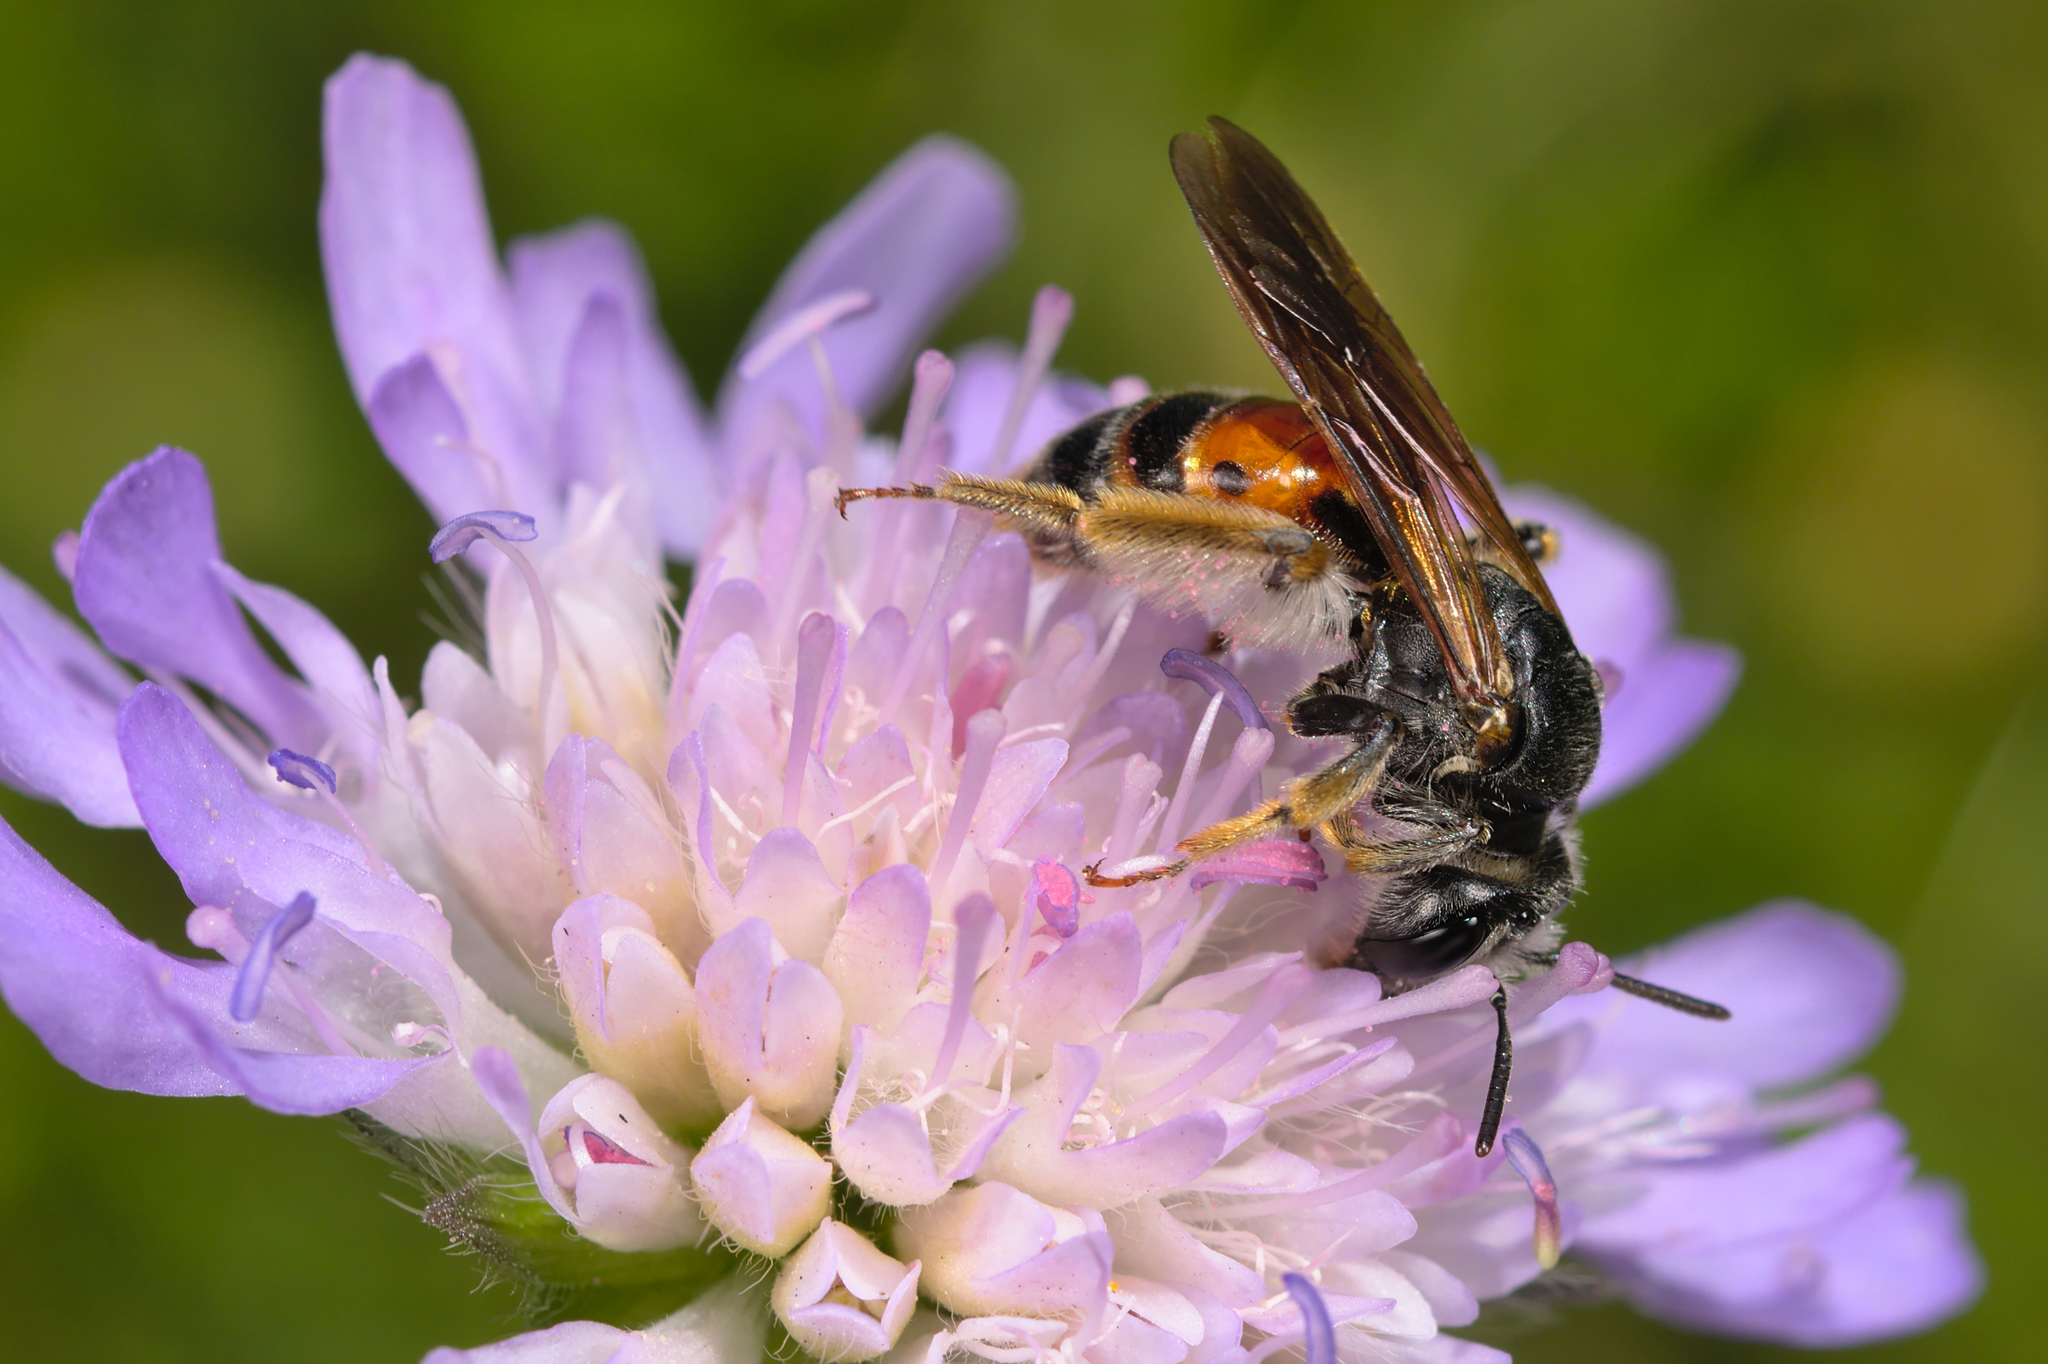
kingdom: Animalia
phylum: Arthropoda
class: Insecta
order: Hymenoptera
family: Andrenidae
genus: Andrena
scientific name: Andrena hattorfiana
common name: Large scabious mining bee
